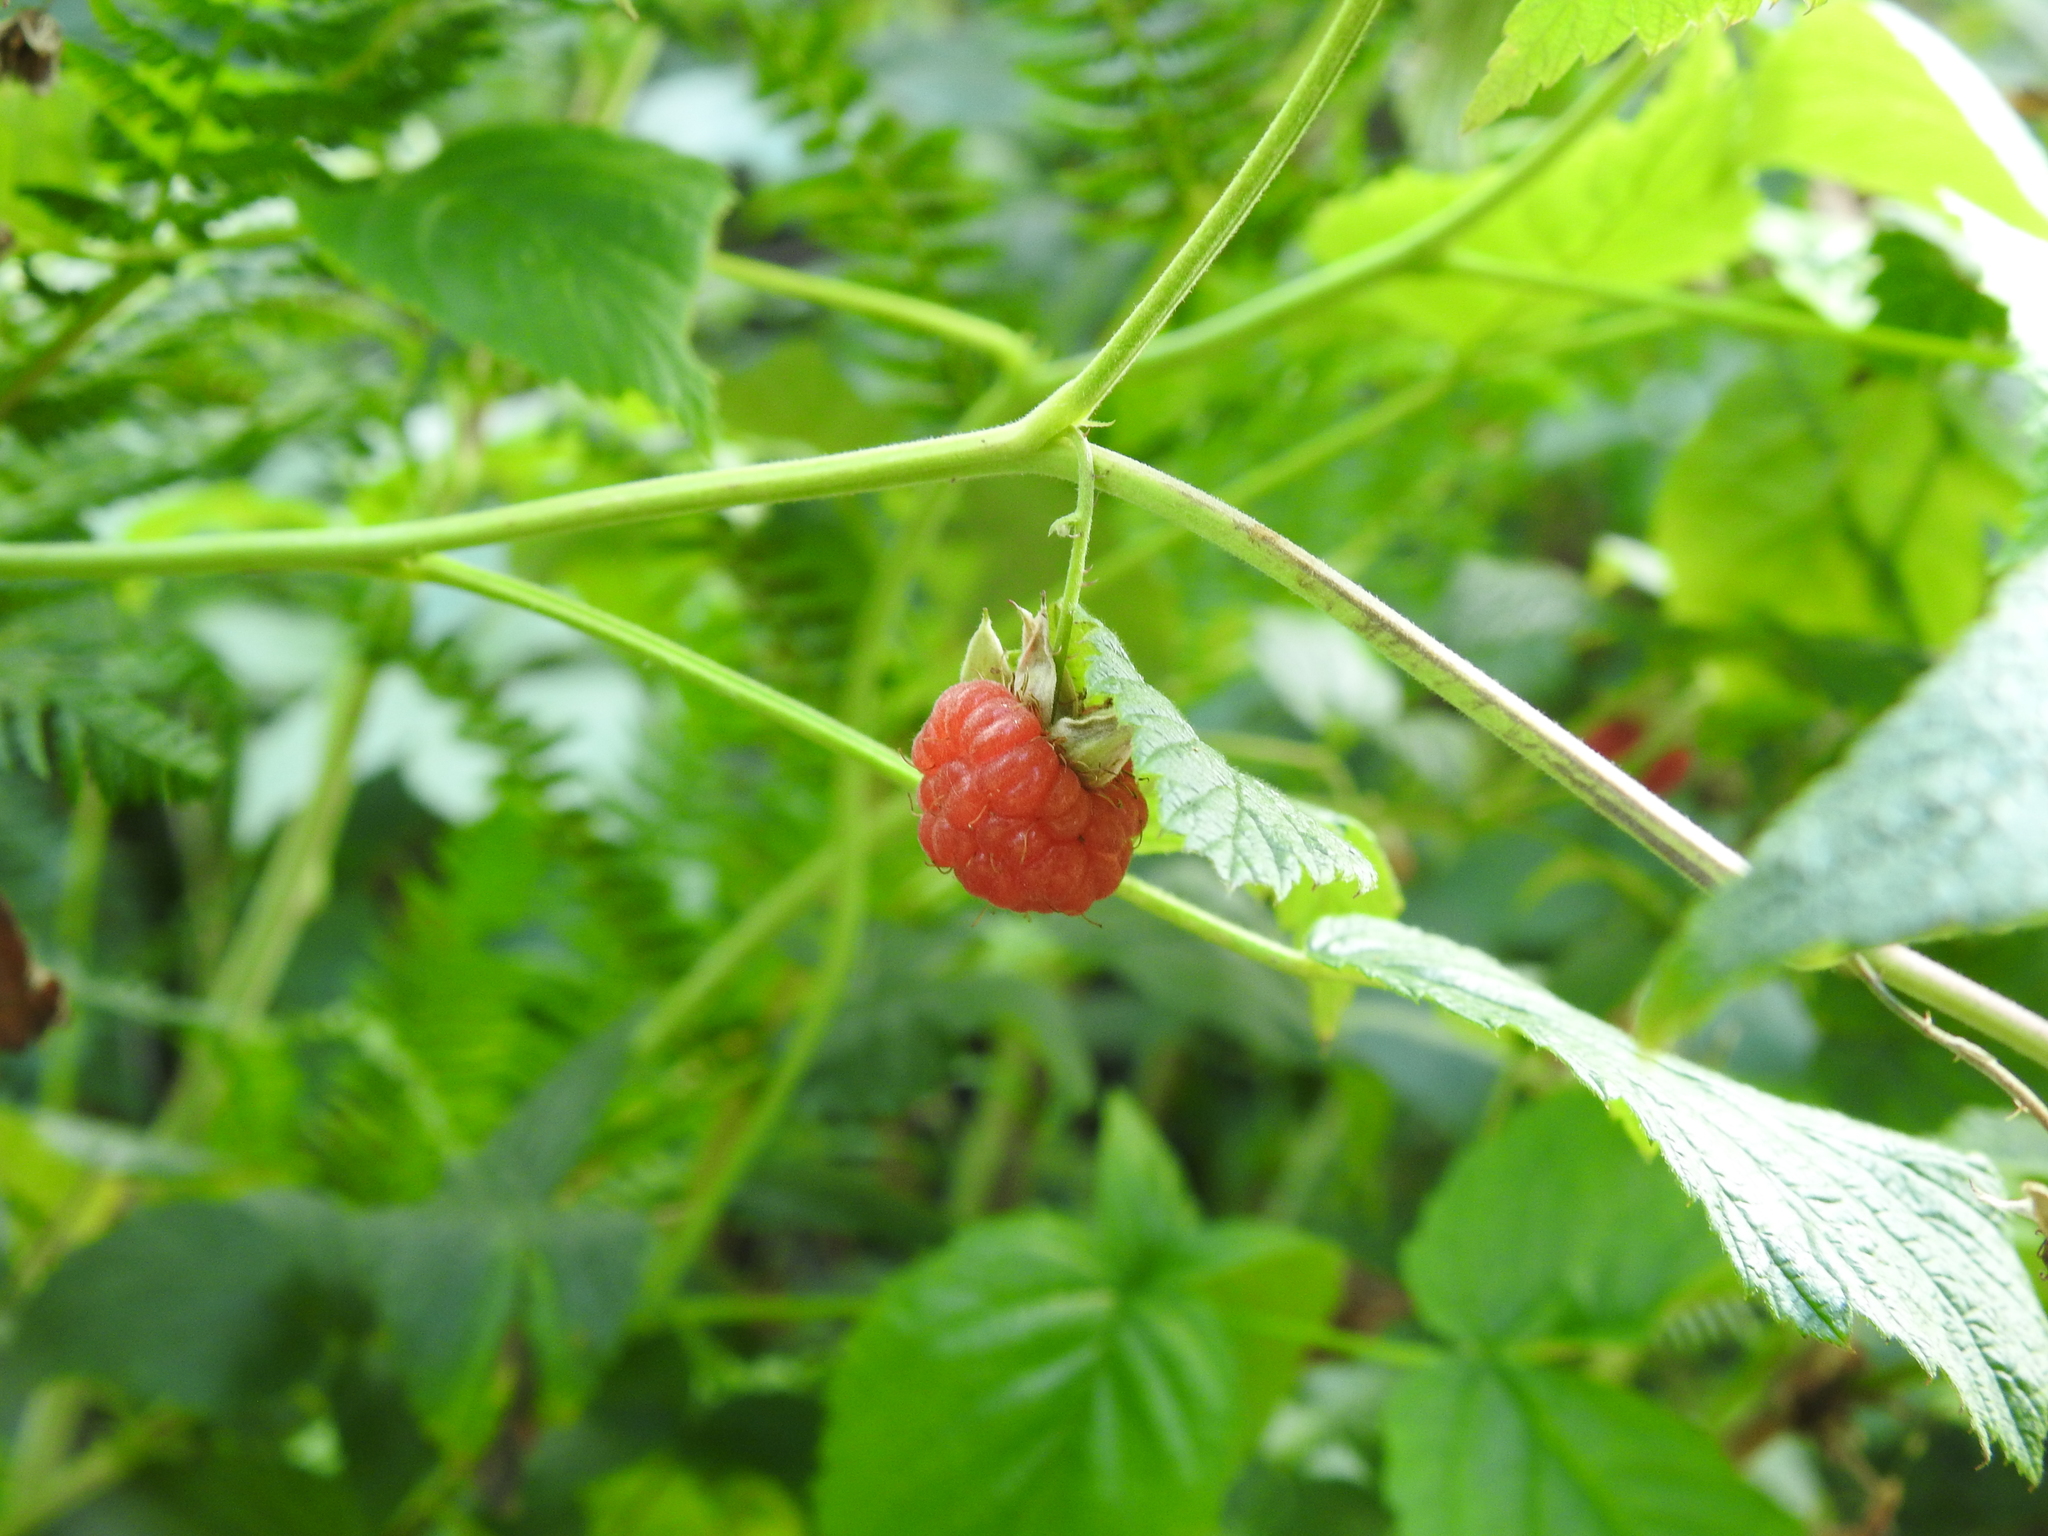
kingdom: Plantae
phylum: Tracheophyta
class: Magnoliopsida
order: Rosales
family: Rosaceae
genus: Rubus
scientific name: Rubus idaeus
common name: Raspberry
